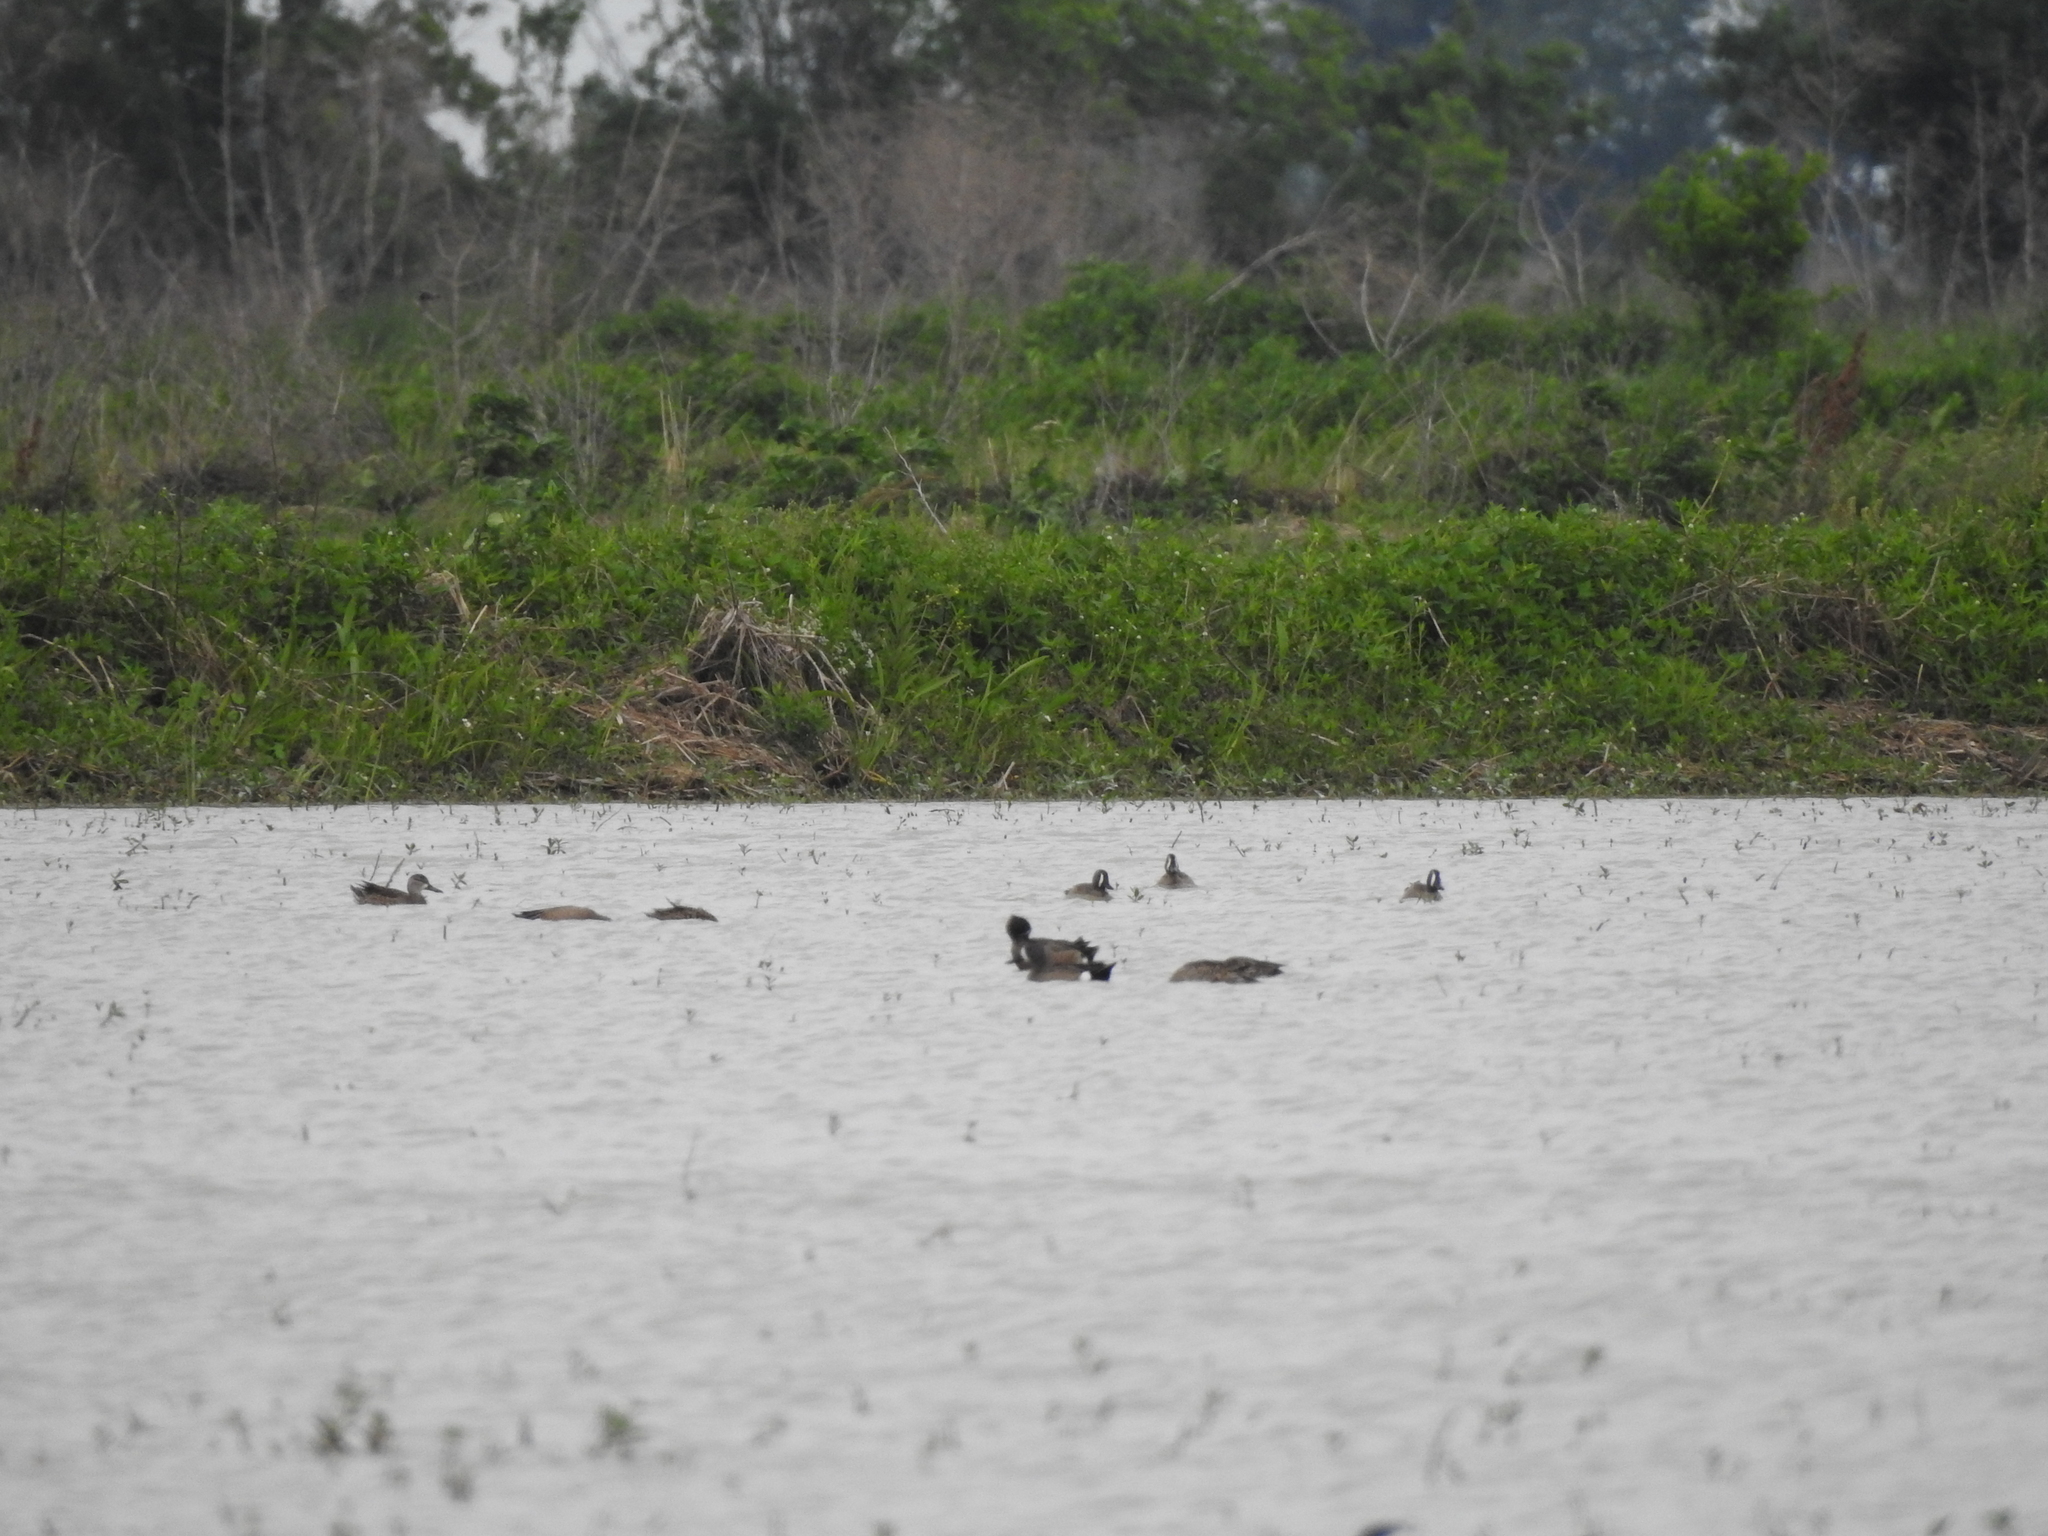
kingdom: Animalia
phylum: Chordata
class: Aves
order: Anseriformes
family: Anatidae
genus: Spatula
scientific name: Spatula discors
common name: Blue-winged teal
